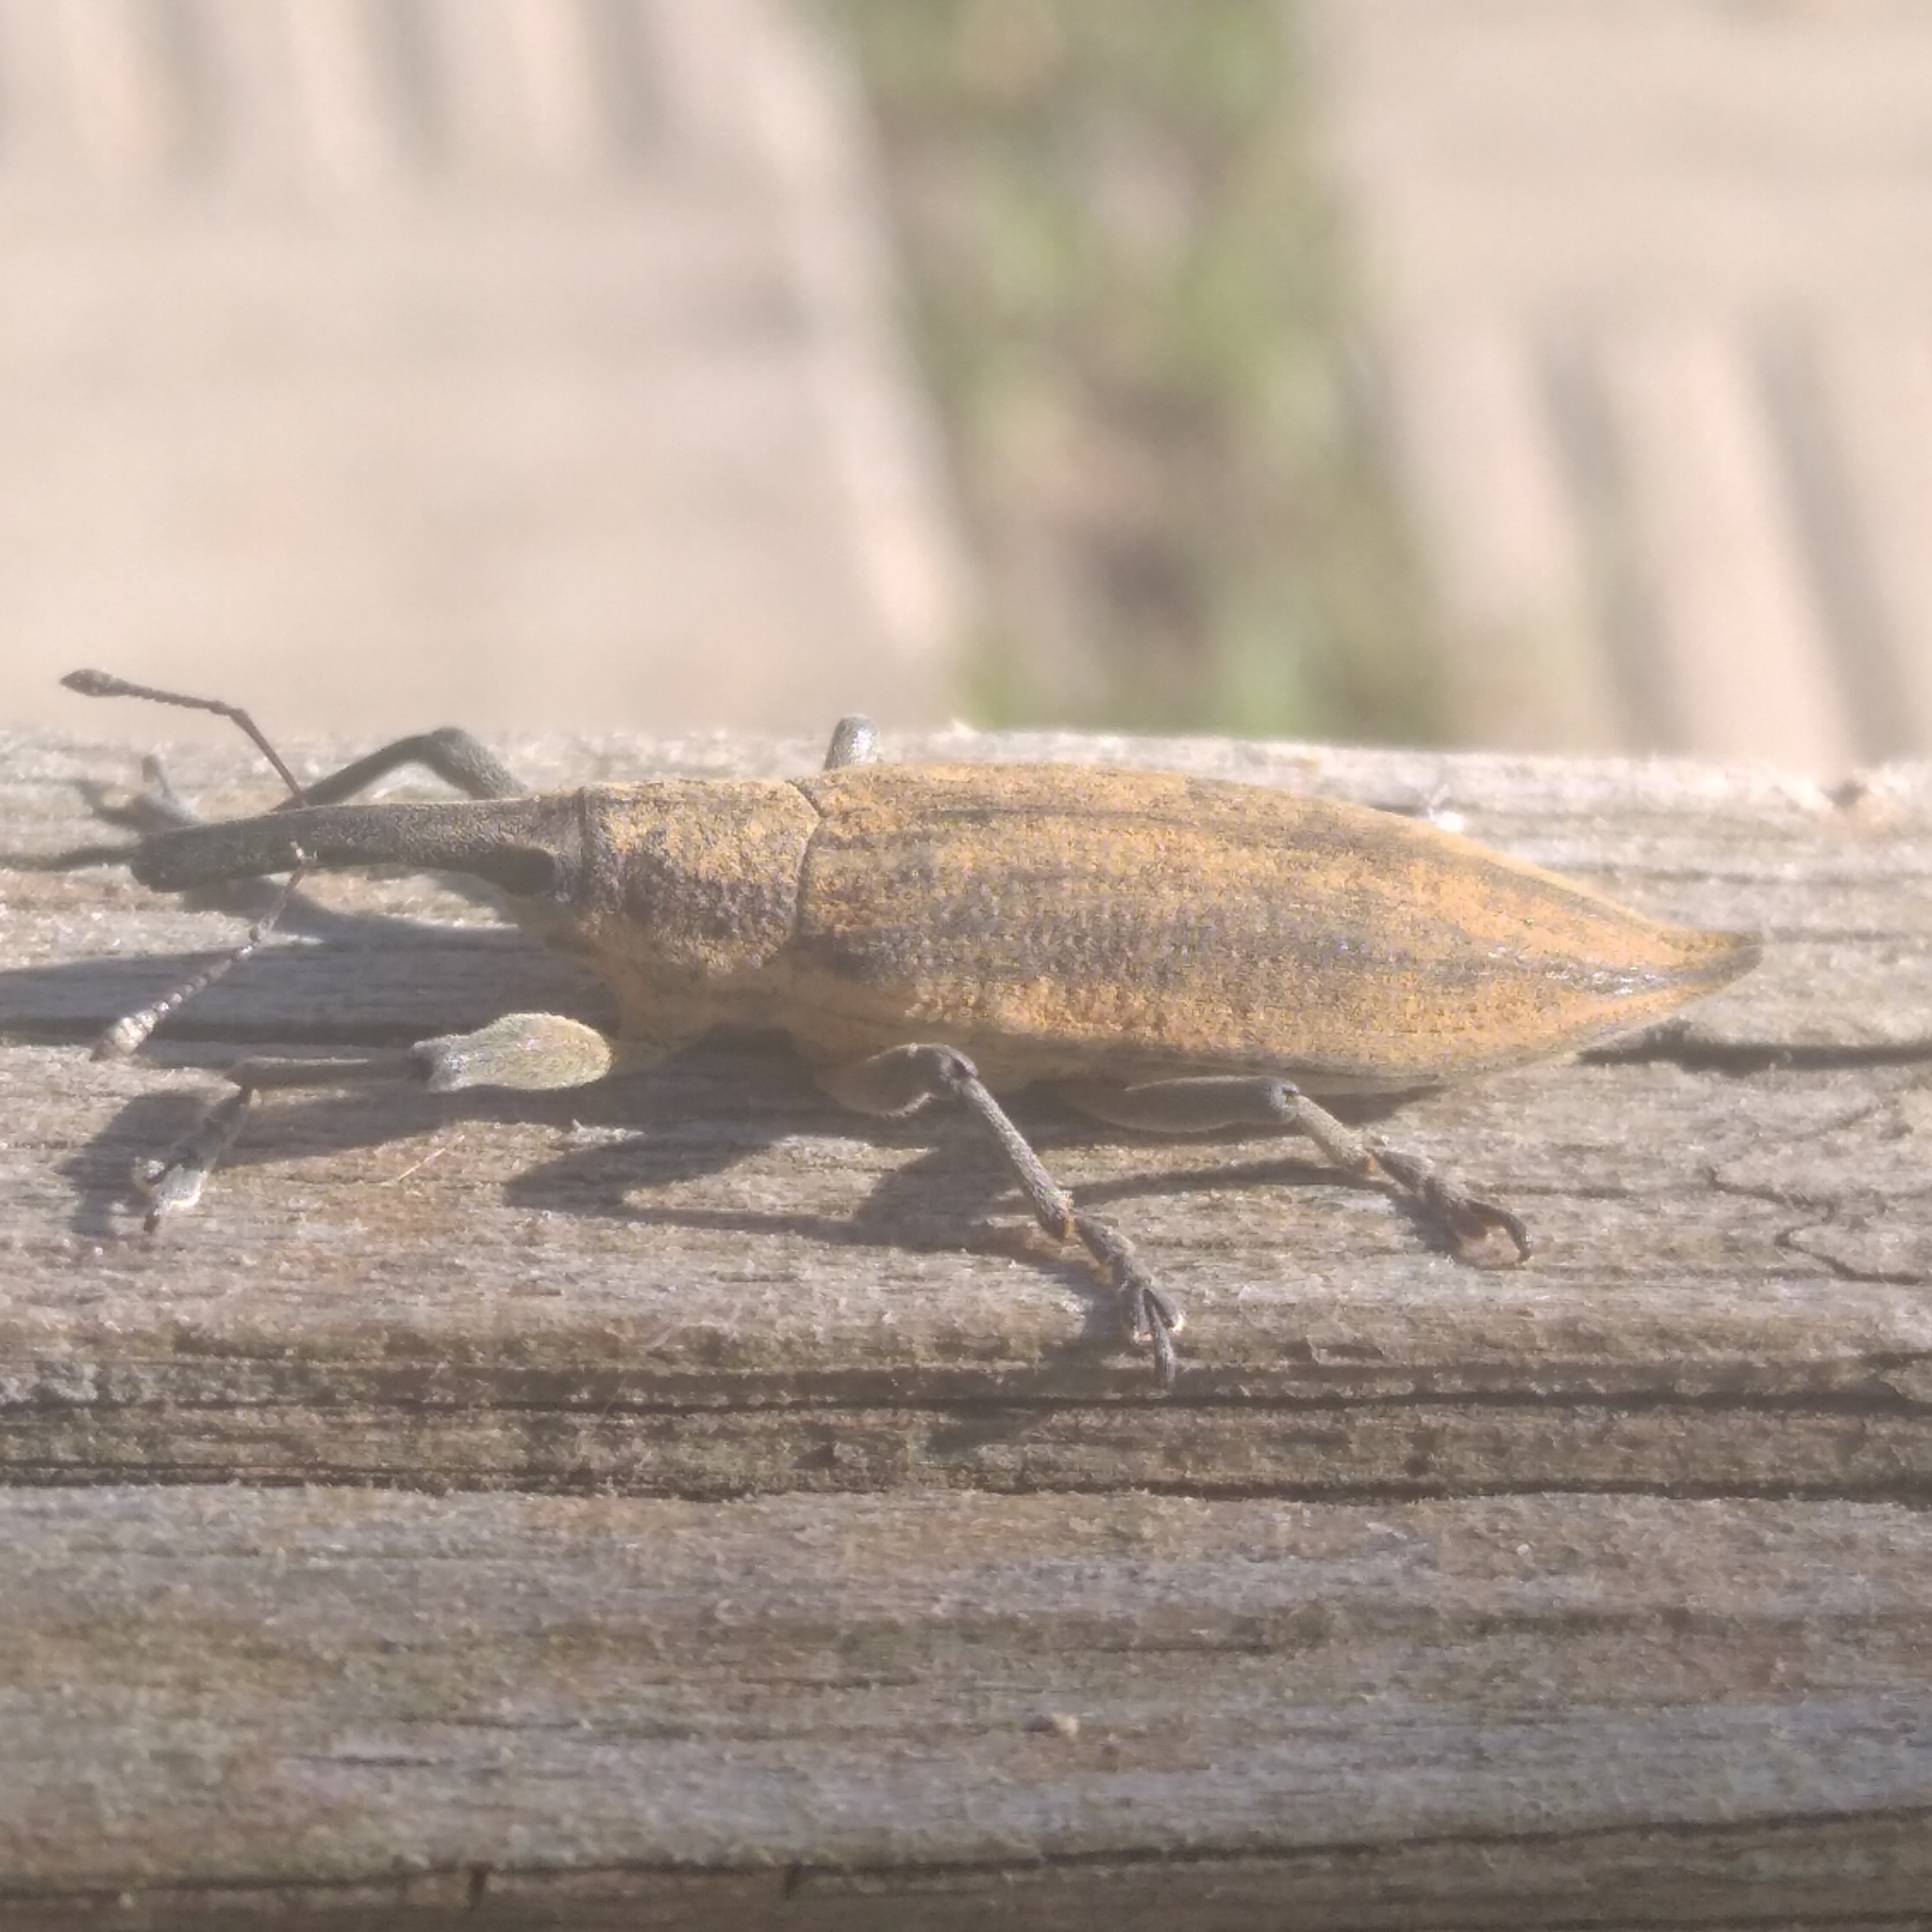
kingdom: Animalia
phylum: Arthropoda
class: Insecta
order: Coleoptera
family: Curculionidae
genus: Lixus
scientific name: Lixus iridis
